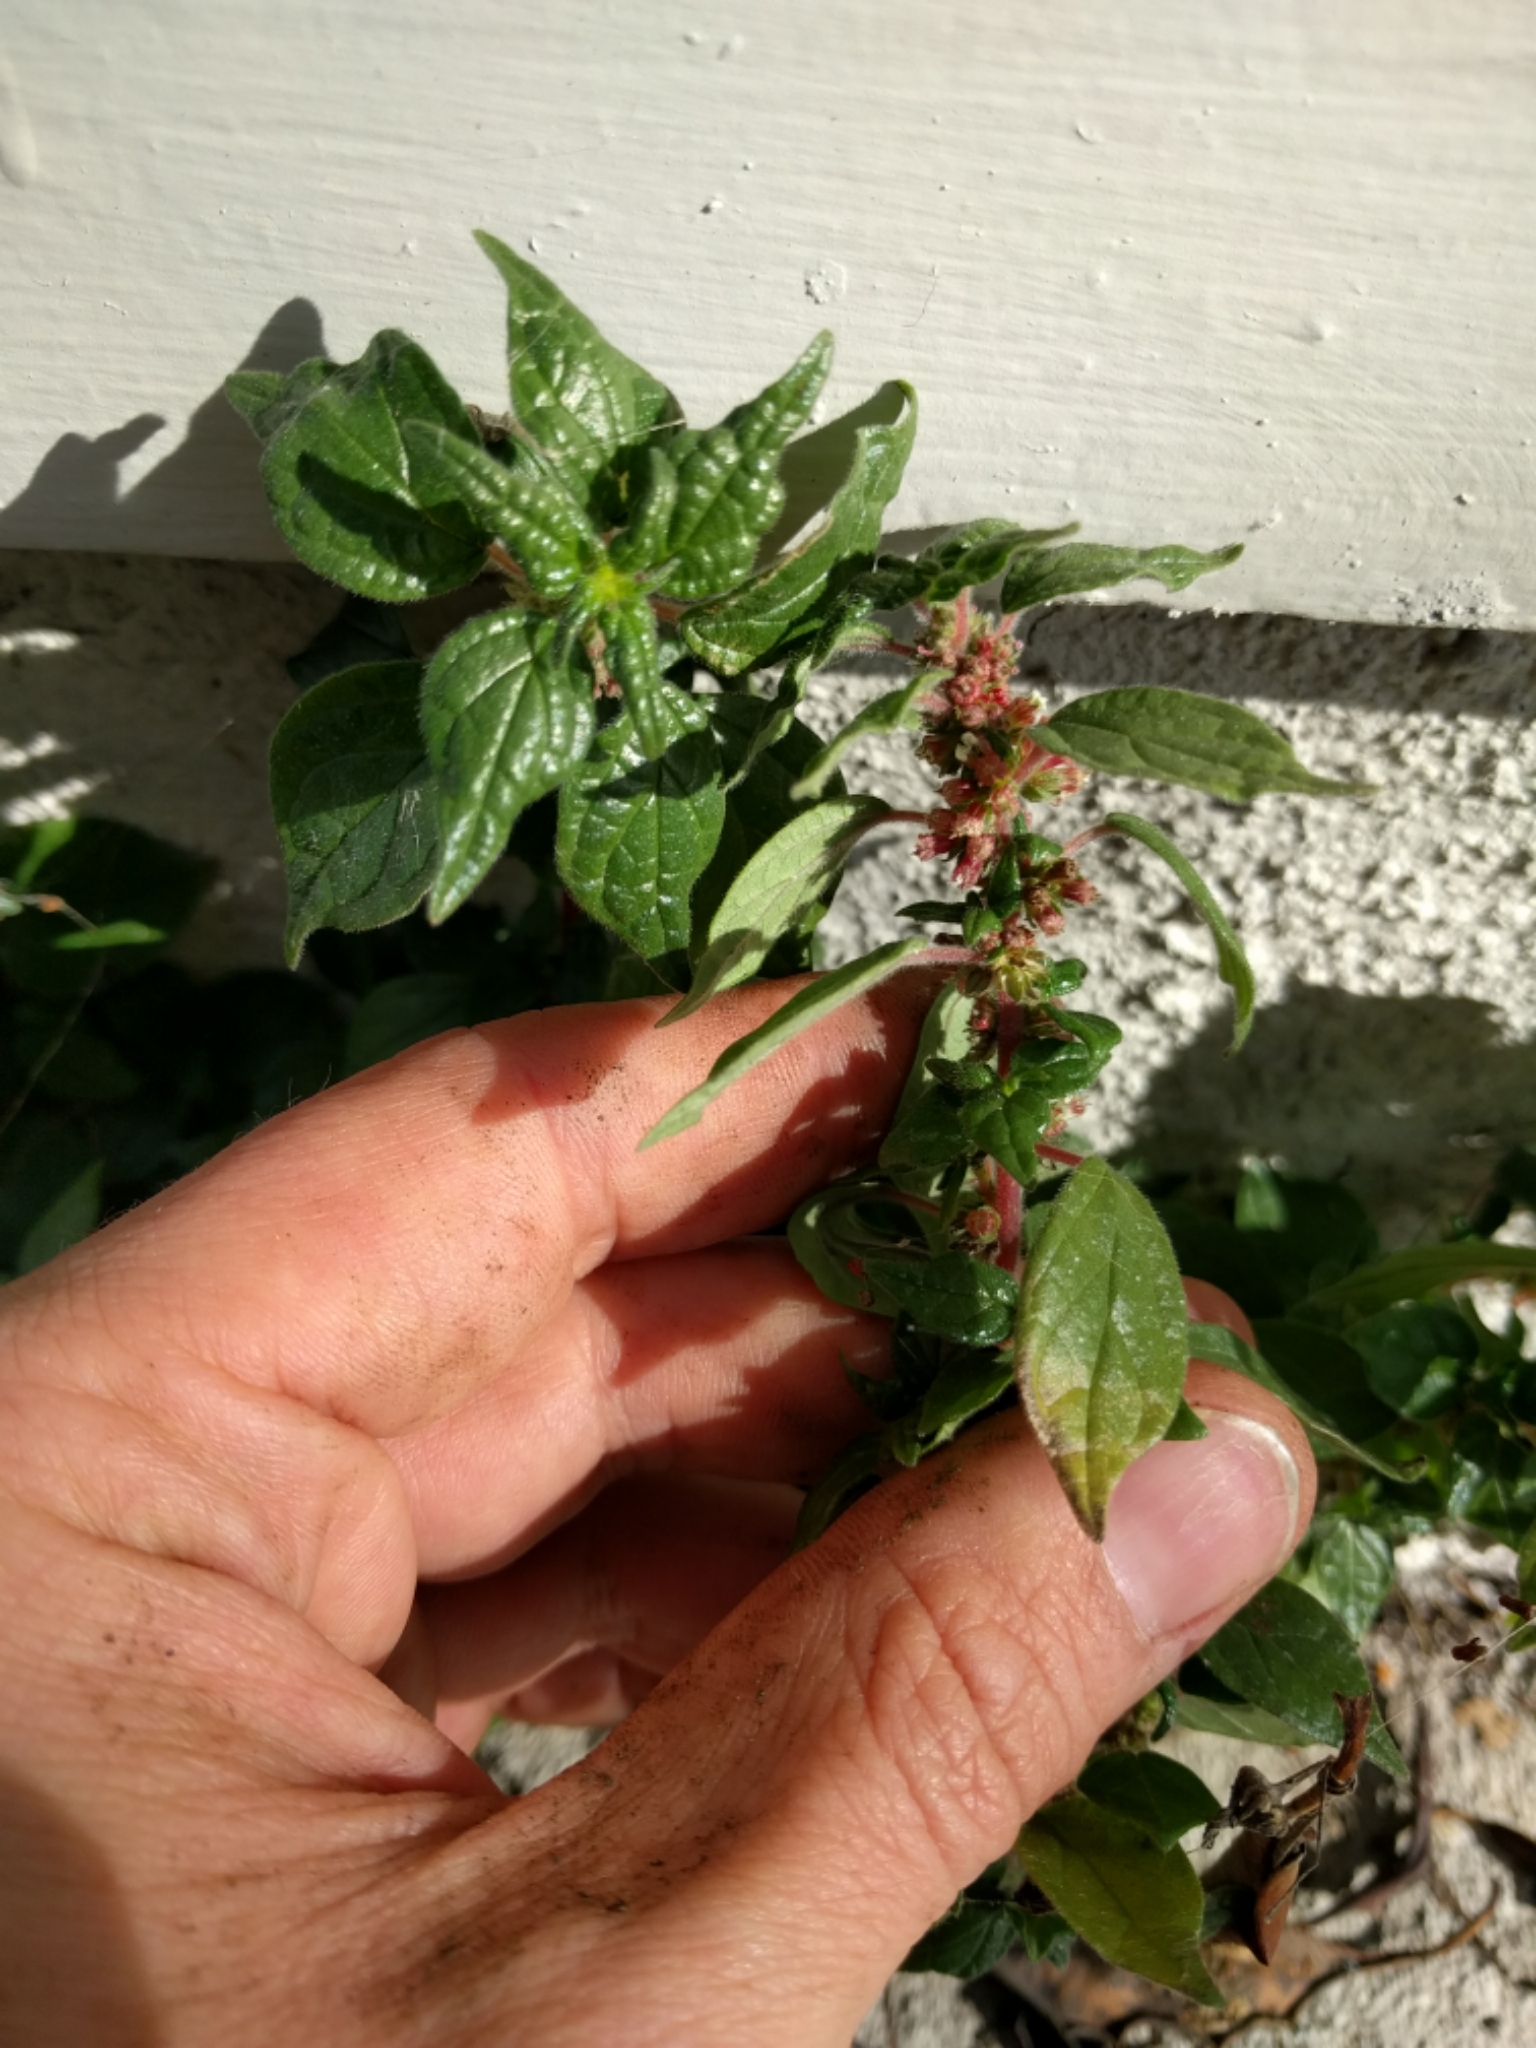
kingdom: Plantae
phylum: Tracheophyta
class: Magnoliopsida
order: Rosales
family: Urticaceae
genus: Parietaria
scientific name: Parietaria judaica
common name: Pellitory-of-the-wall
